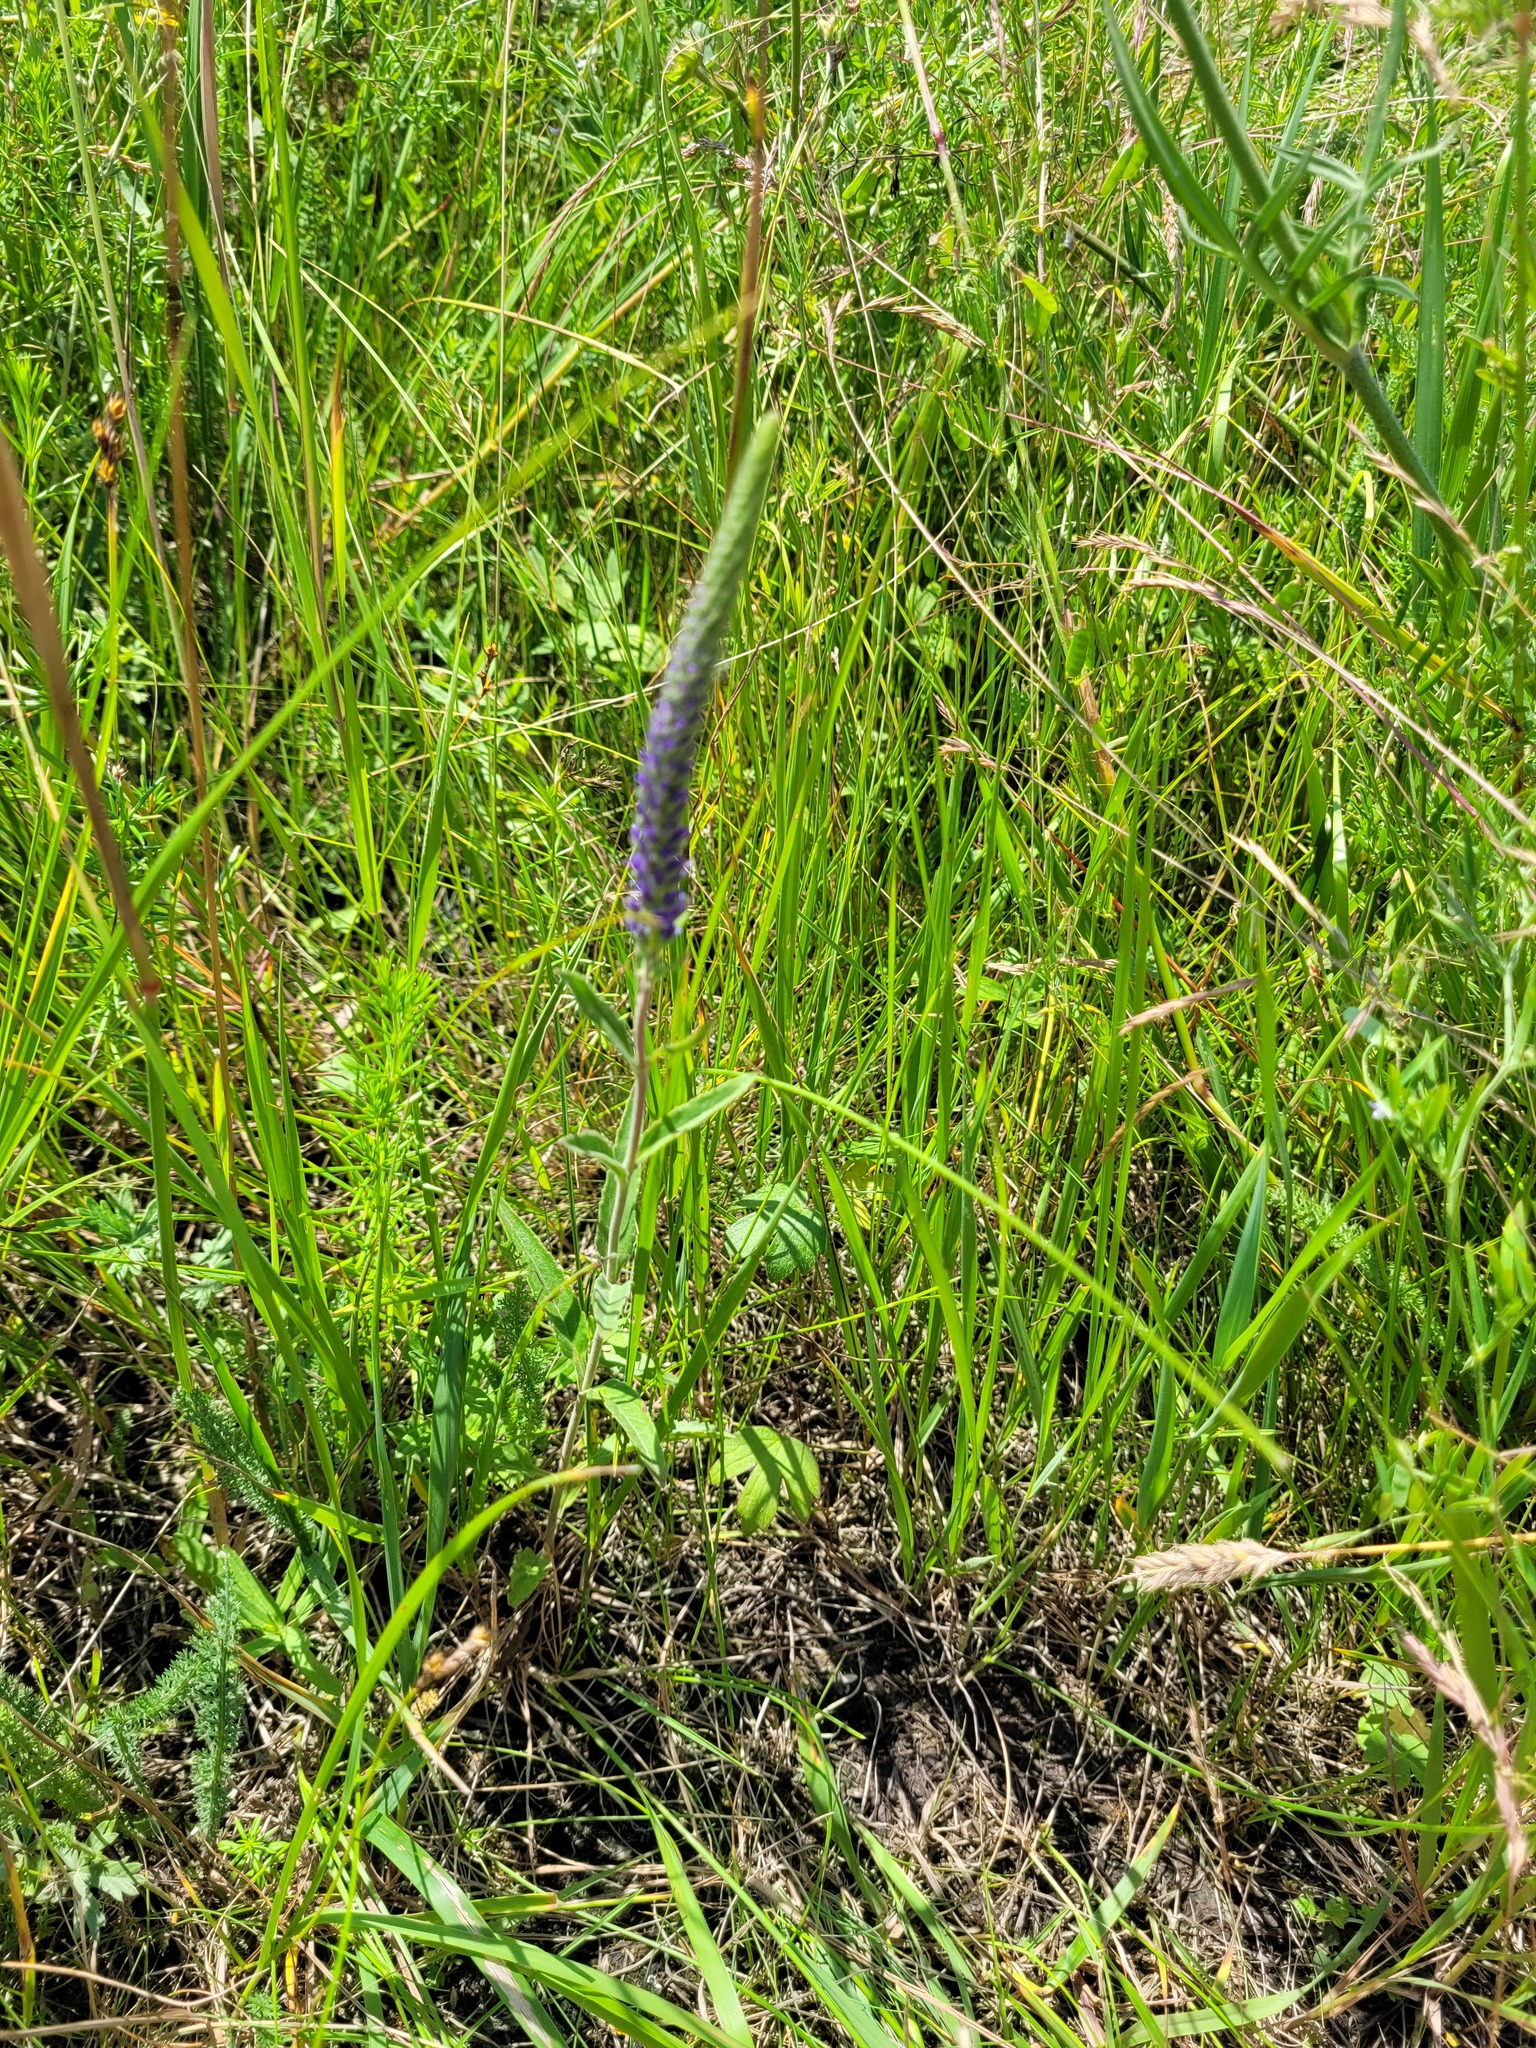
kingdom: Plantae
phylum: Tracheophyta
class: Magnoliopsida
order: Lamiales
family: Plantaginaceae
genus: Veronica
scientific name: Veronica spicata
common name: Spiked speedwell
